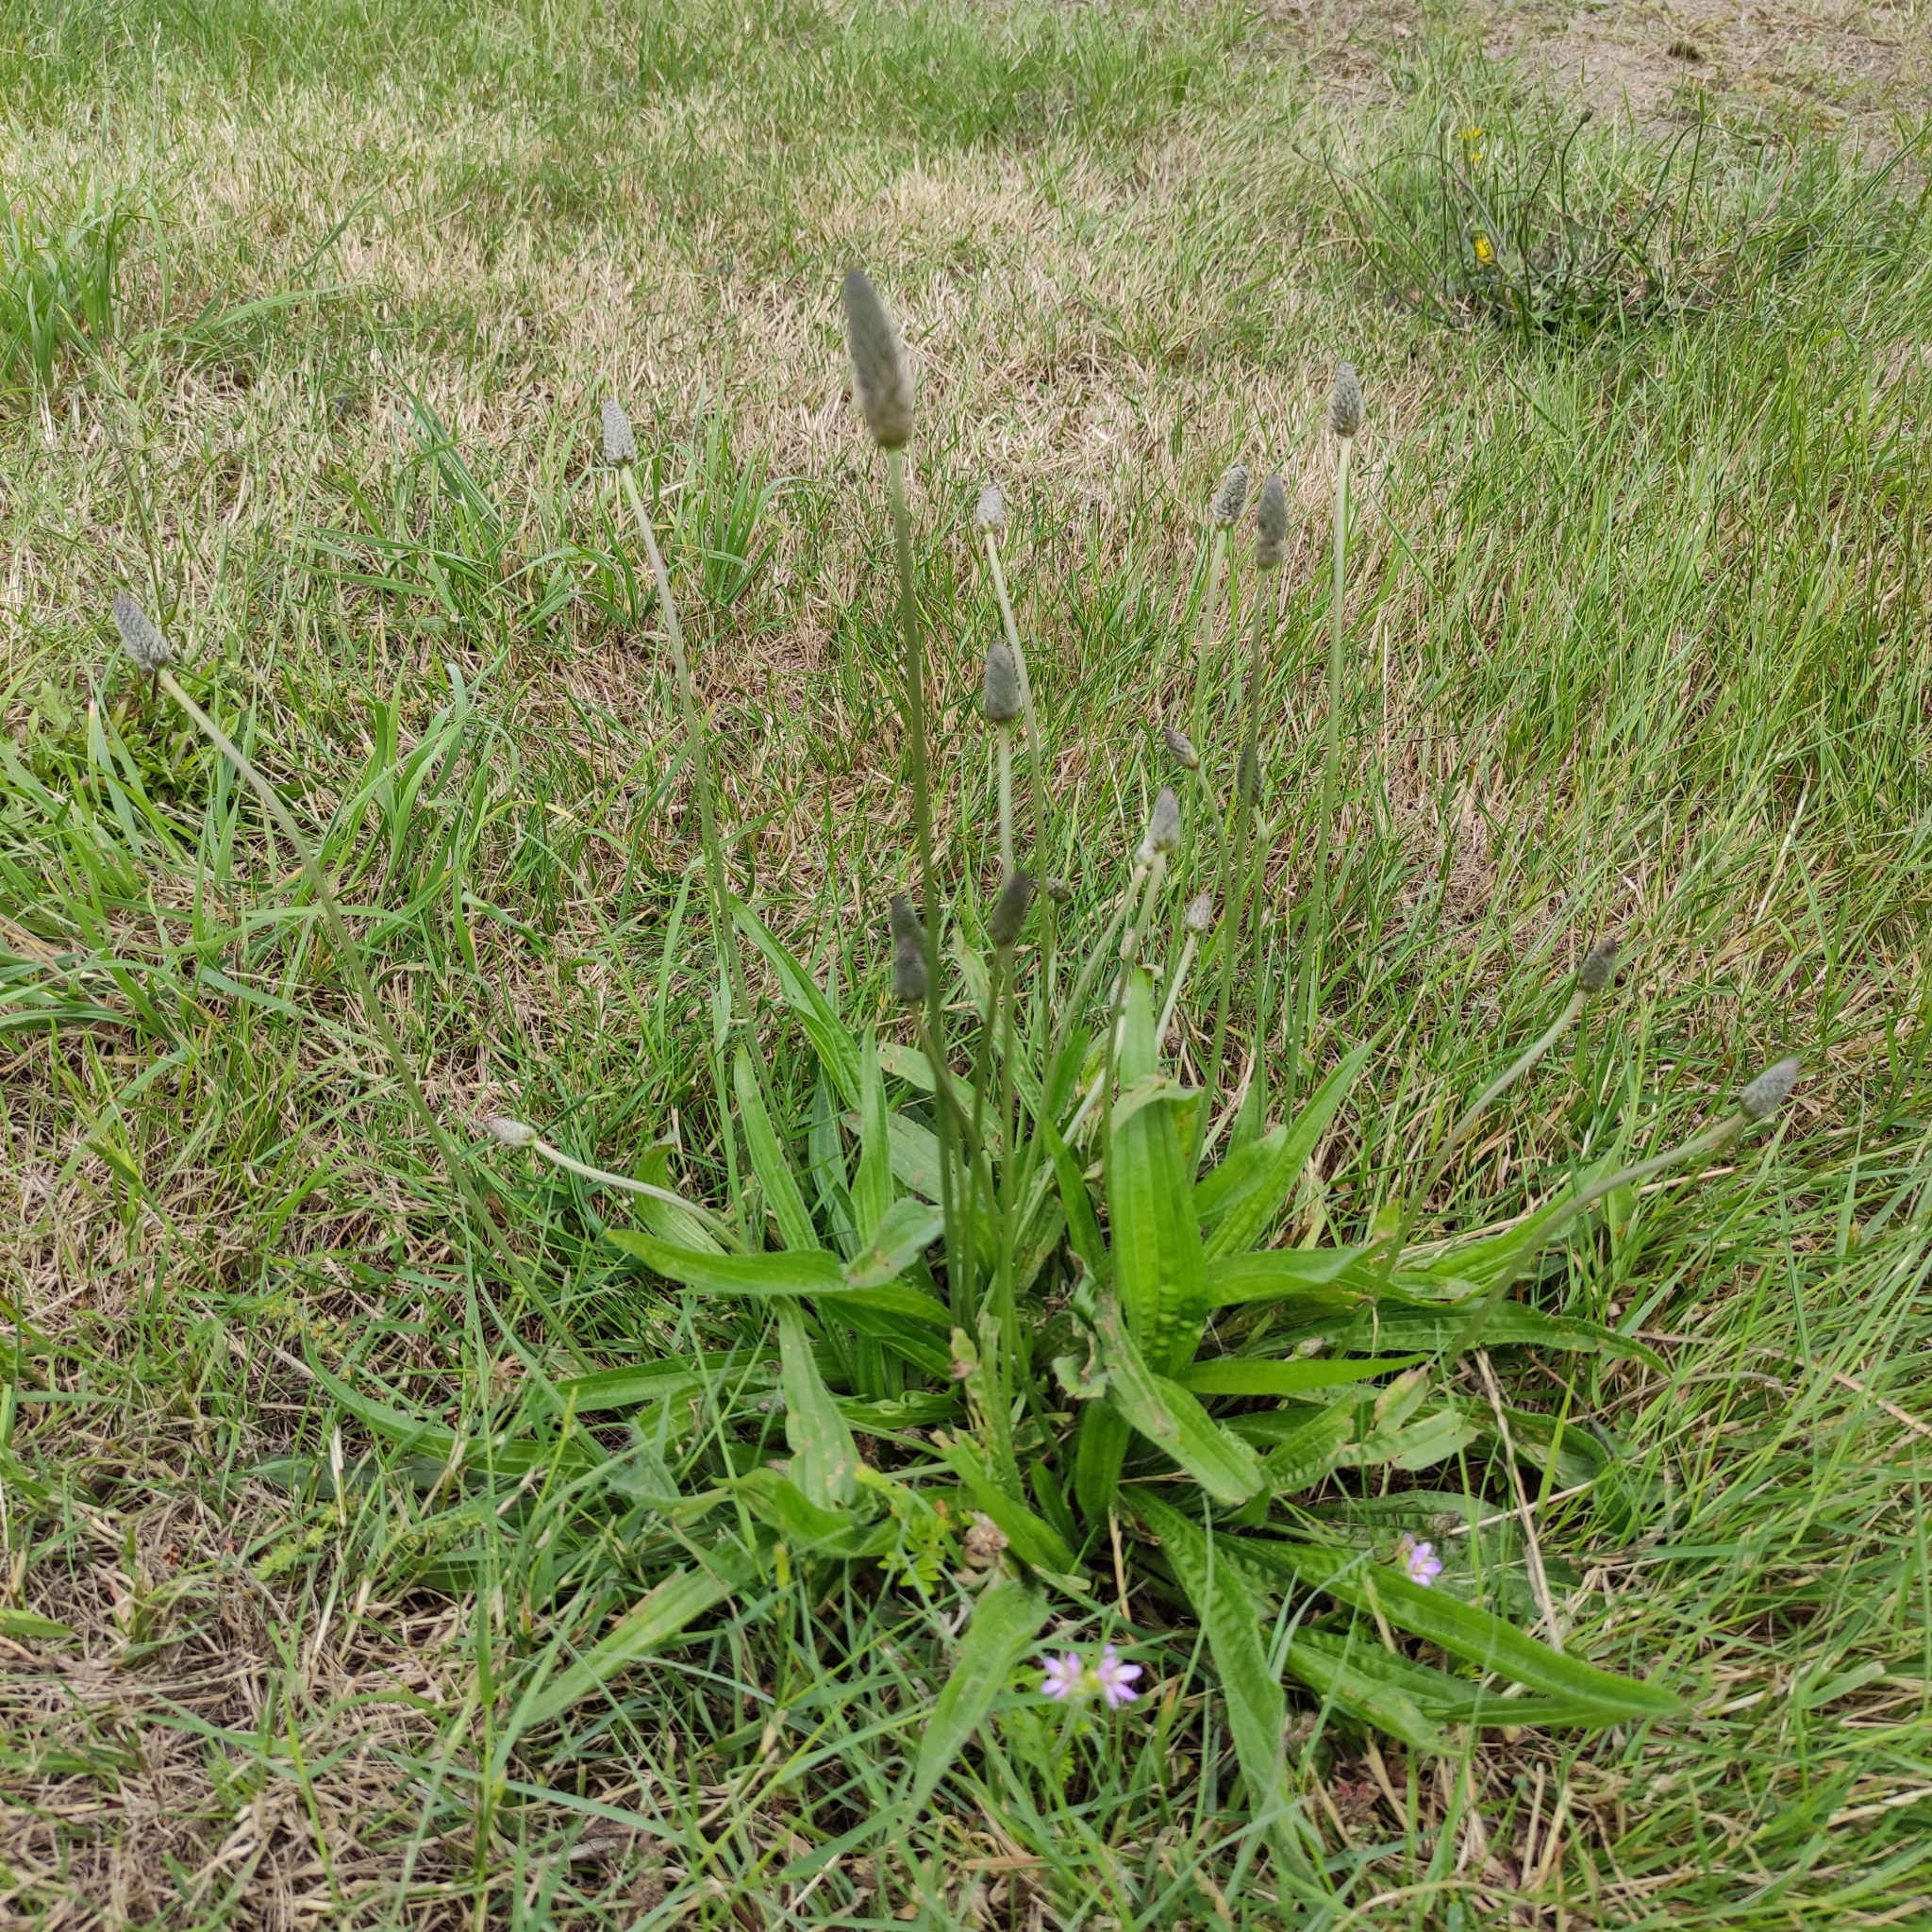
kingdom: Plantae
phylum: Tracheophyta
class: Magnoliopsida
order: Lamiales
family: Plantaginaceae
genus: Plantago
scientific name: Plantago lanceolata
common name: Ribwort plantain
